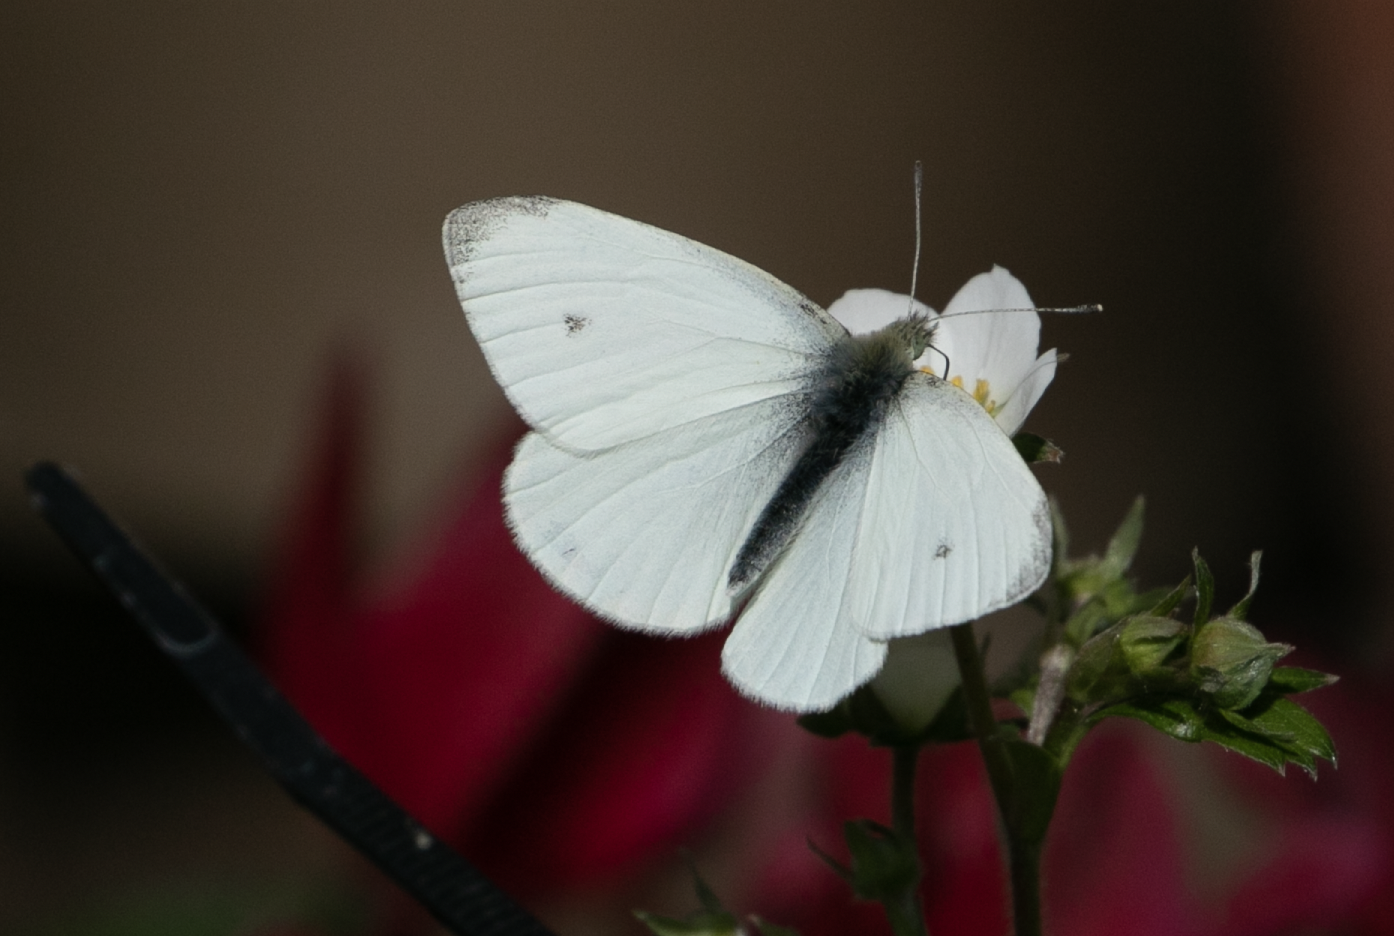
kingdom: Animalia
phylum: Arthropoda
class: Insecta
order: Lepidoptera
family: Pieridae
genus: Pieris
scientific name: Pieris rapae
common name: Small white
